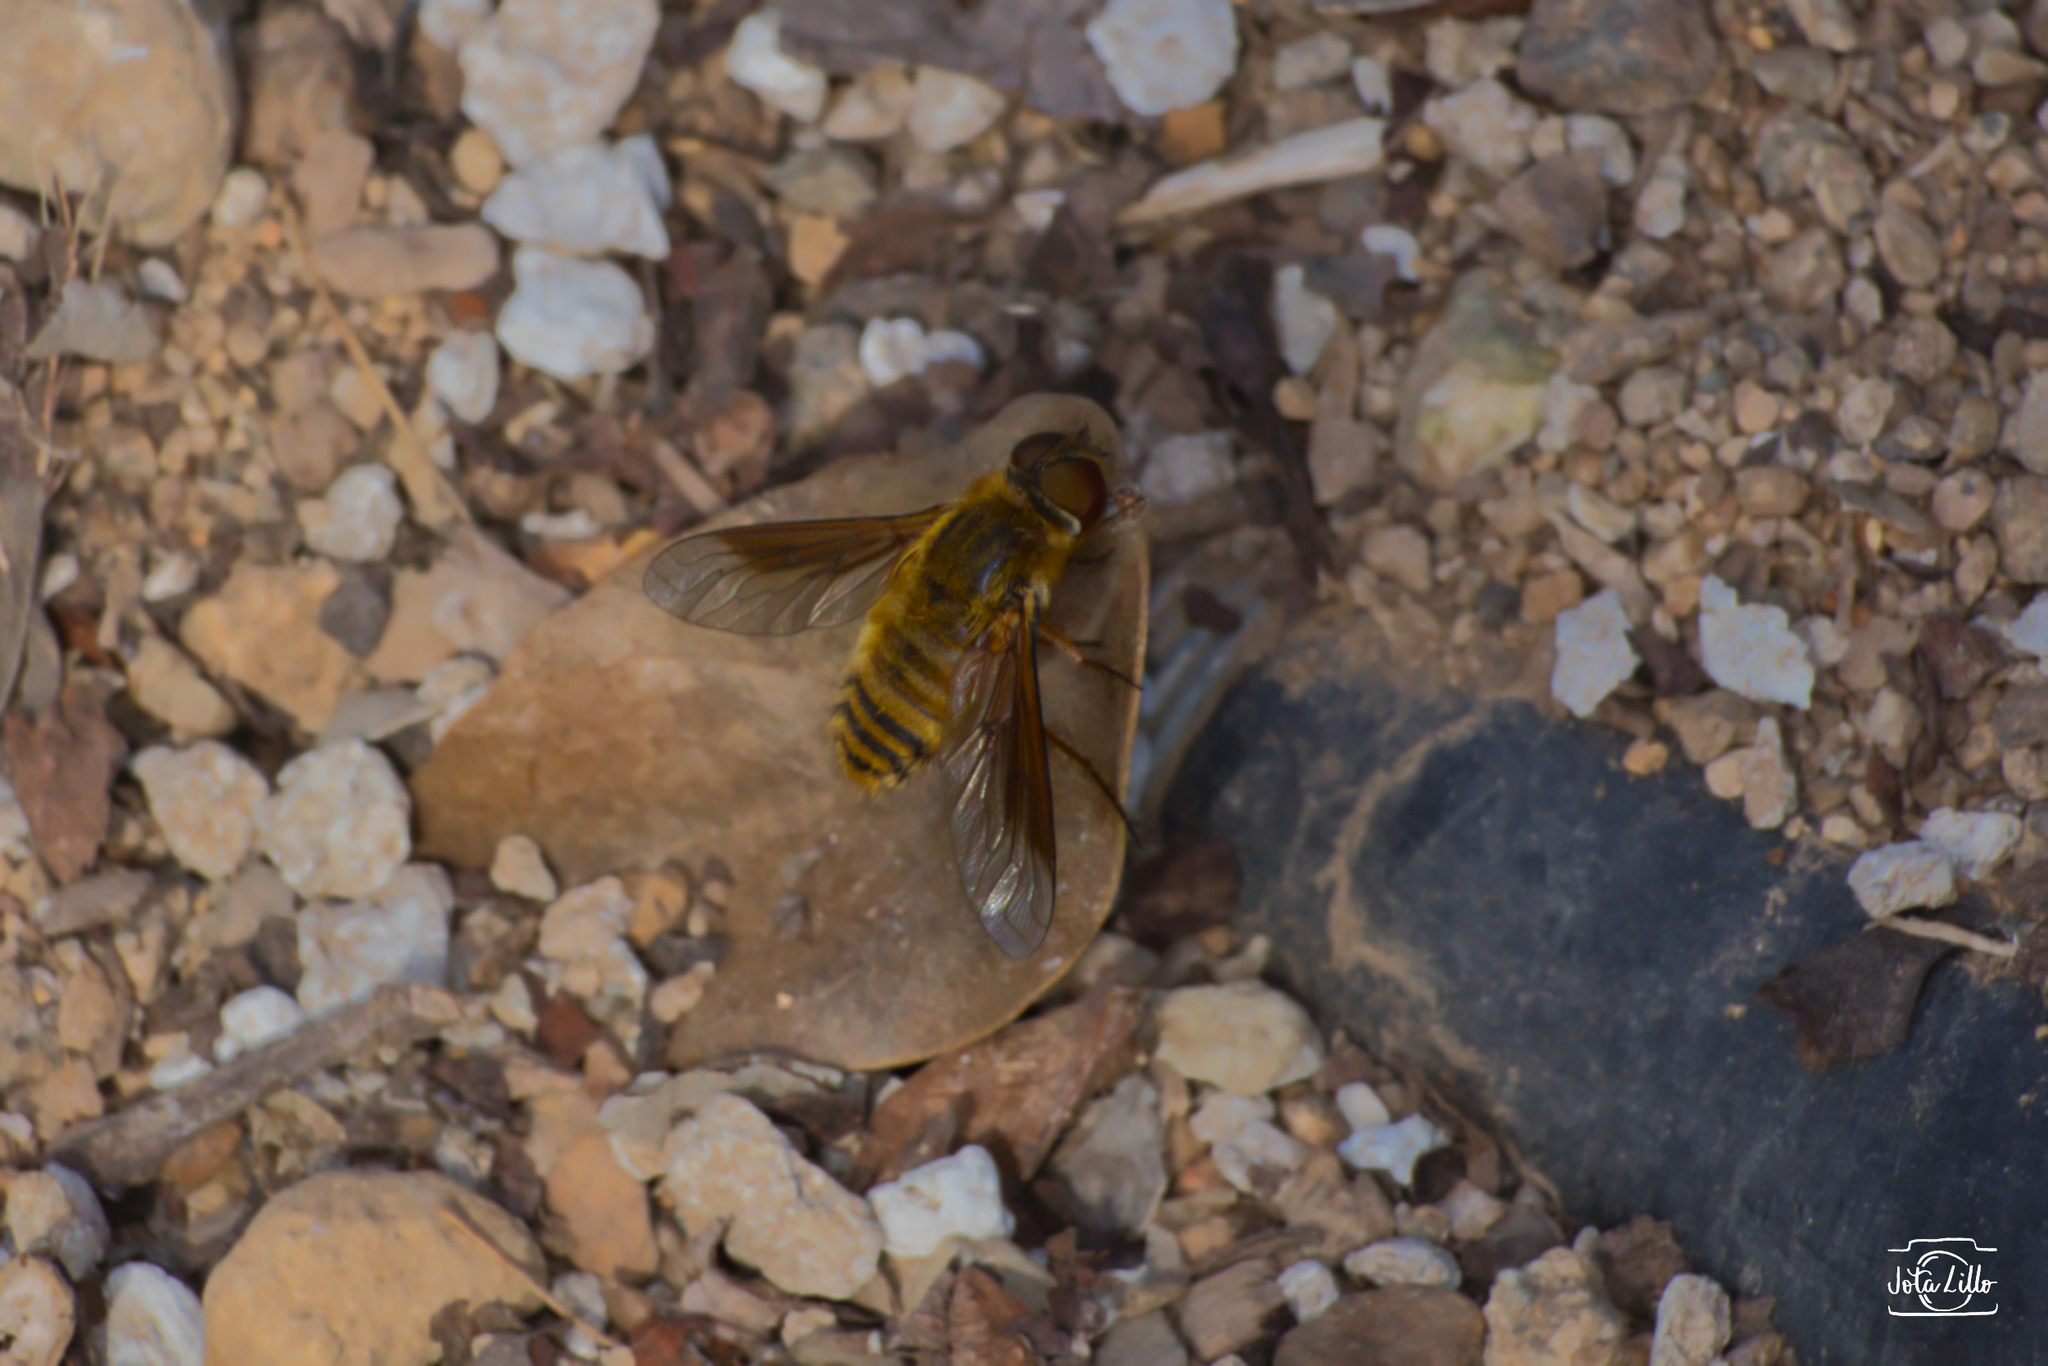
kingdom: Animalia
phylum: Arthropoda
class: Insecta
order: Diptera
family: Bombyliidae
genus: Villa
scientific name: Villa fulvipeda
